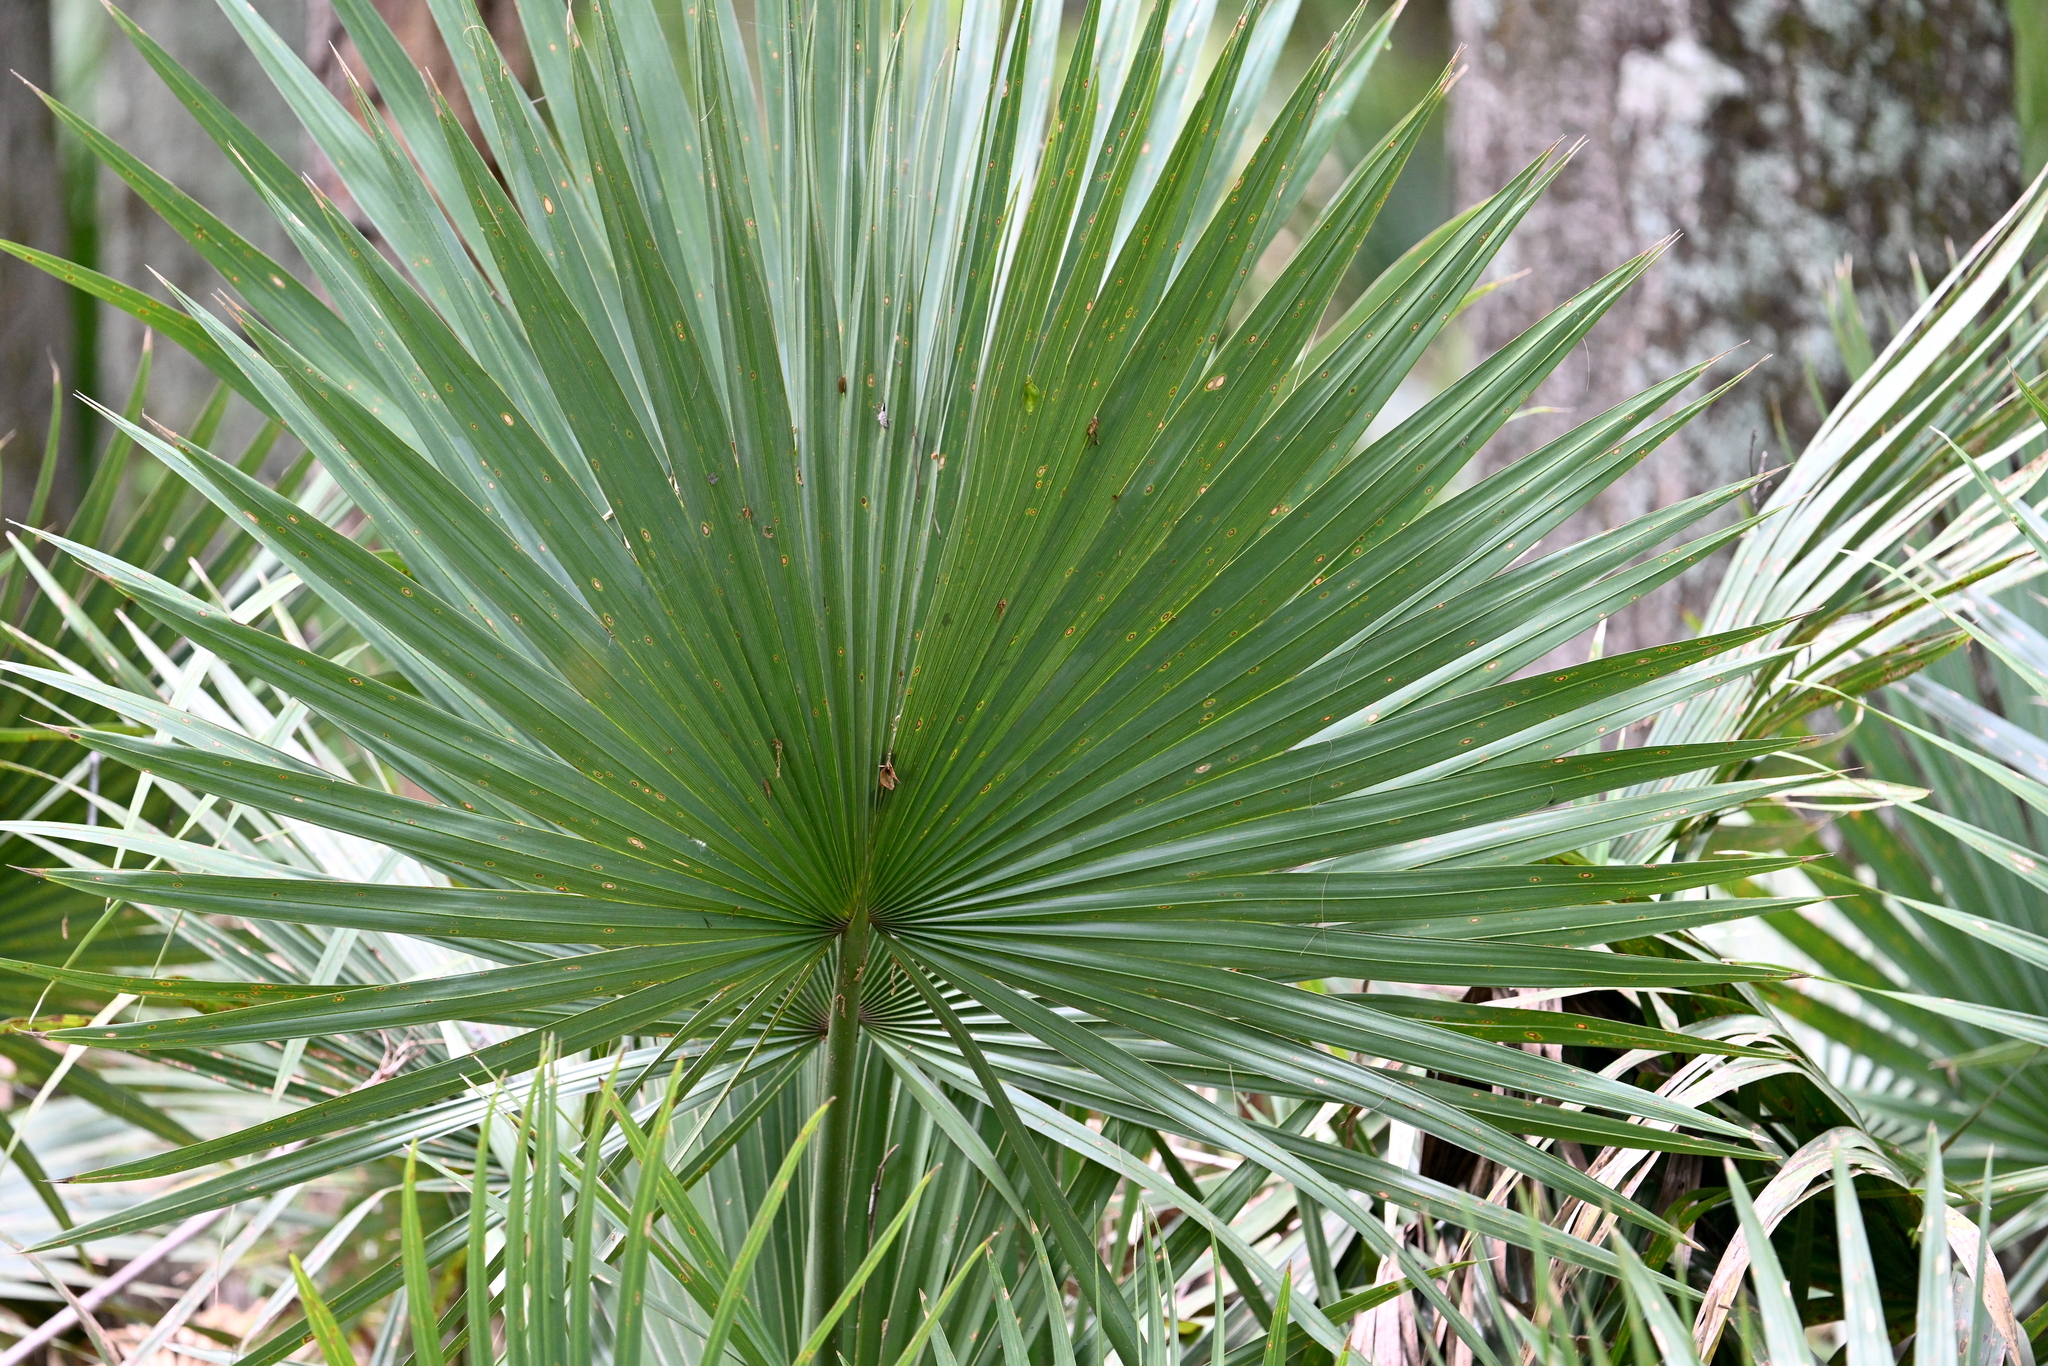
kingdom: Plantae
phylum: Tracheophyta
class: Liliopsida
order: Arecales
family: Arecaceae
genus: Sabal
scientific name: Sabal minor
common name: Dwarf palmetto
